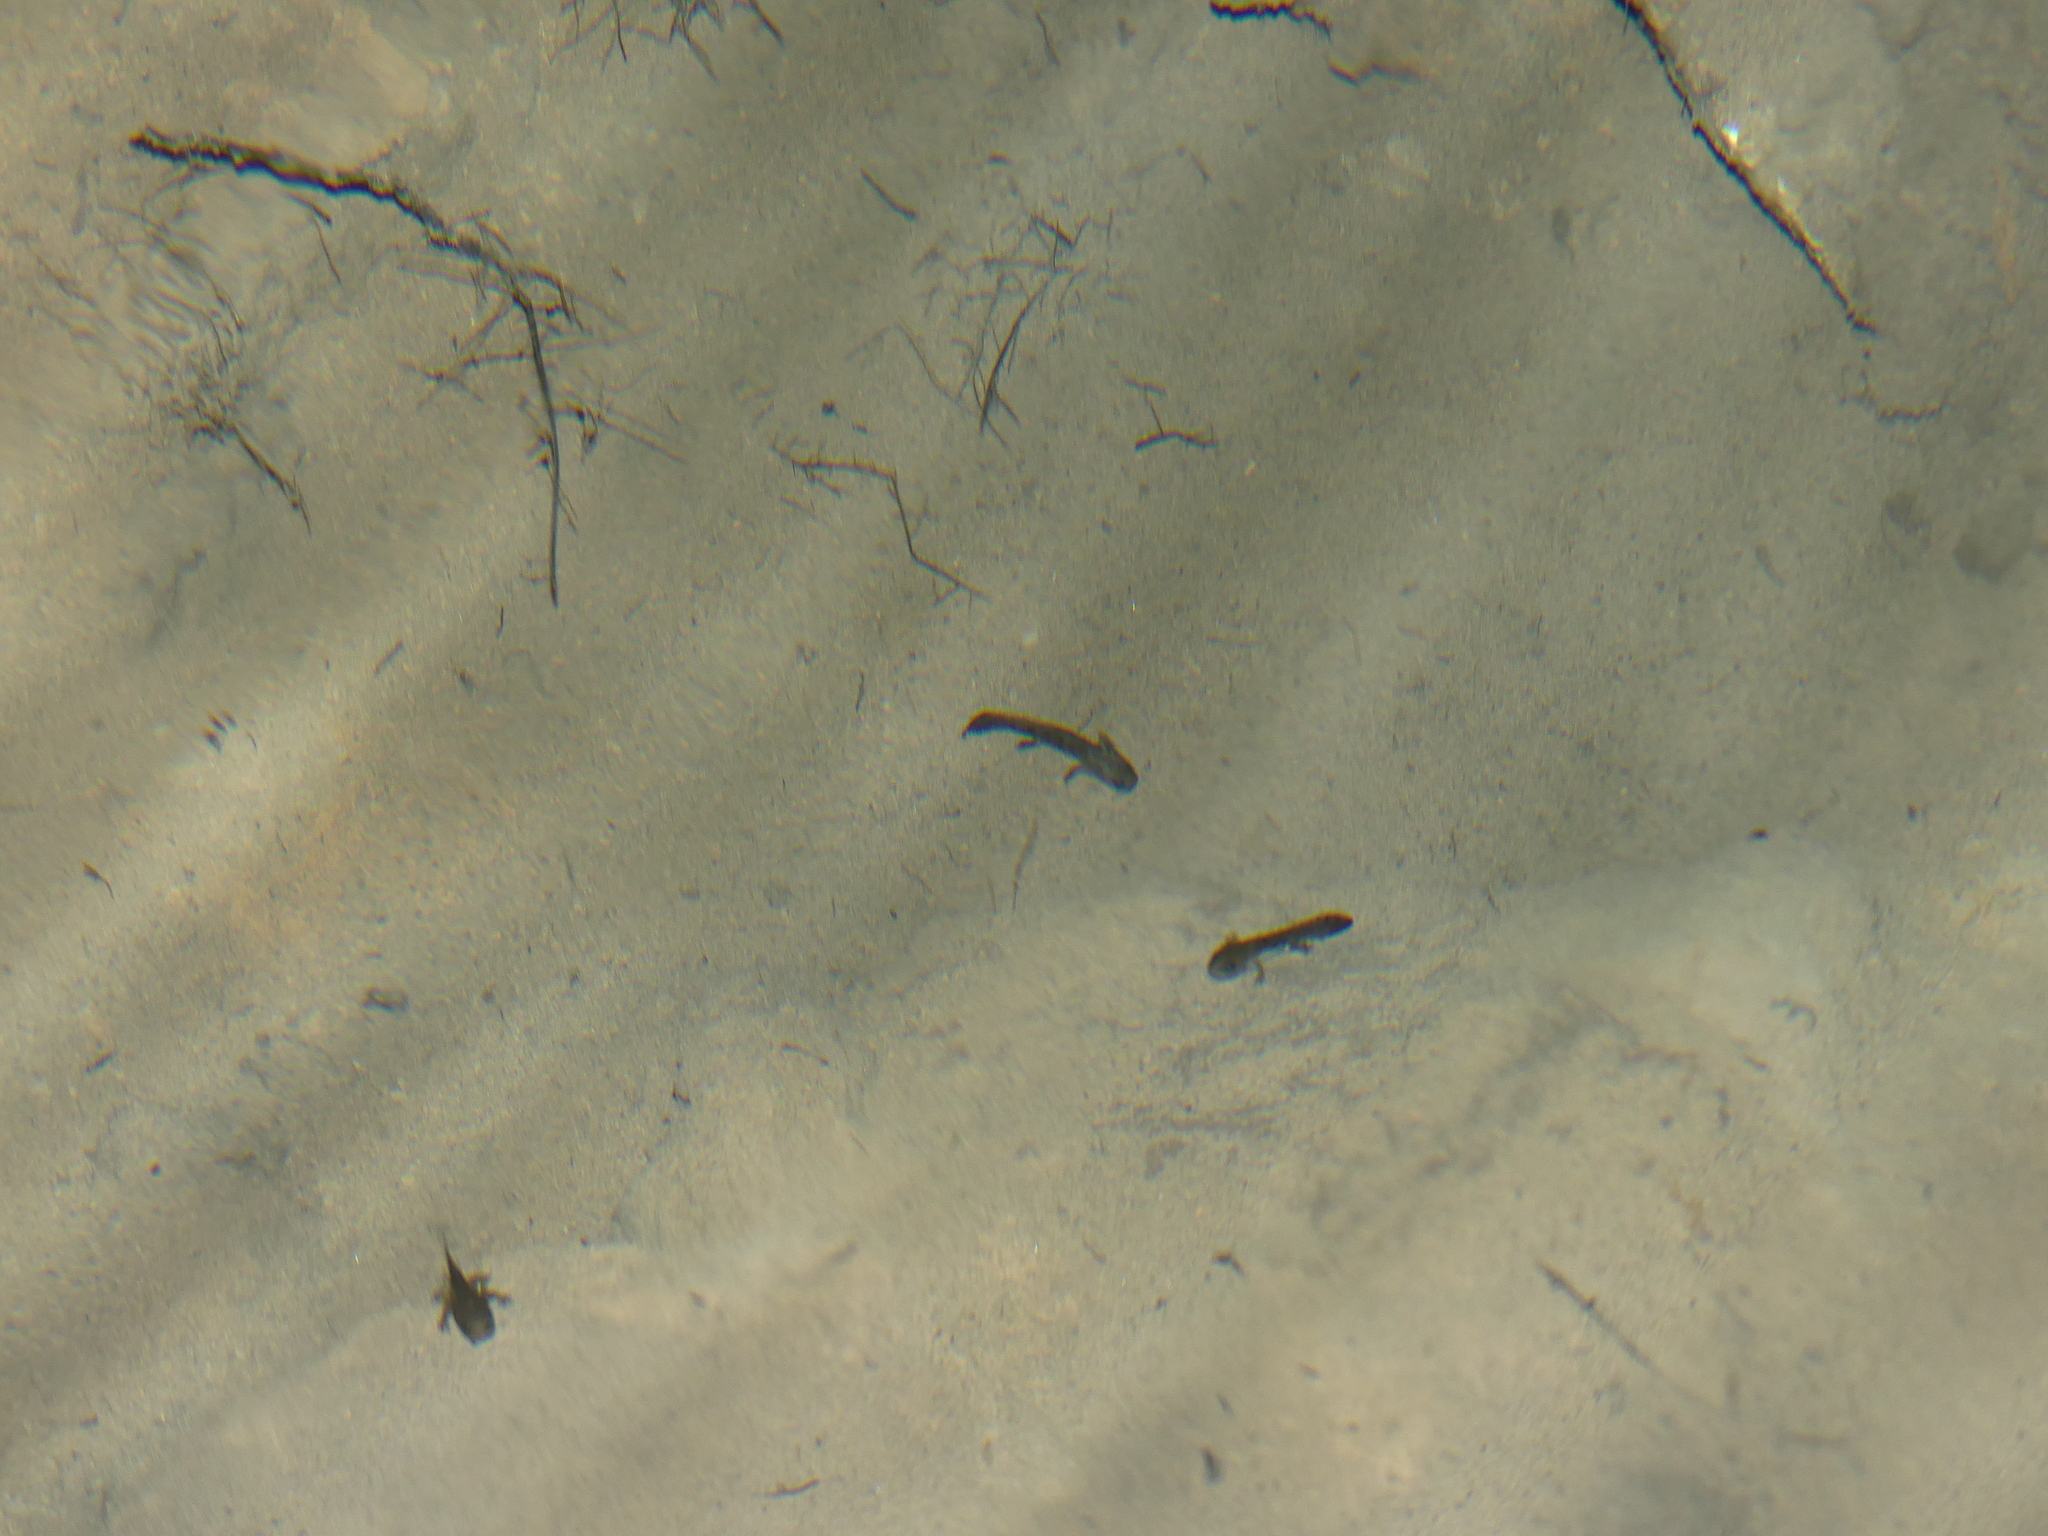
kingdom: Animalia
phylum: Chordata
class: Amphibia
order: Caudata
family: Salamandridae
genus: Salamandra
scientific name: Salamandra salamandra
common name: Fire salamander
